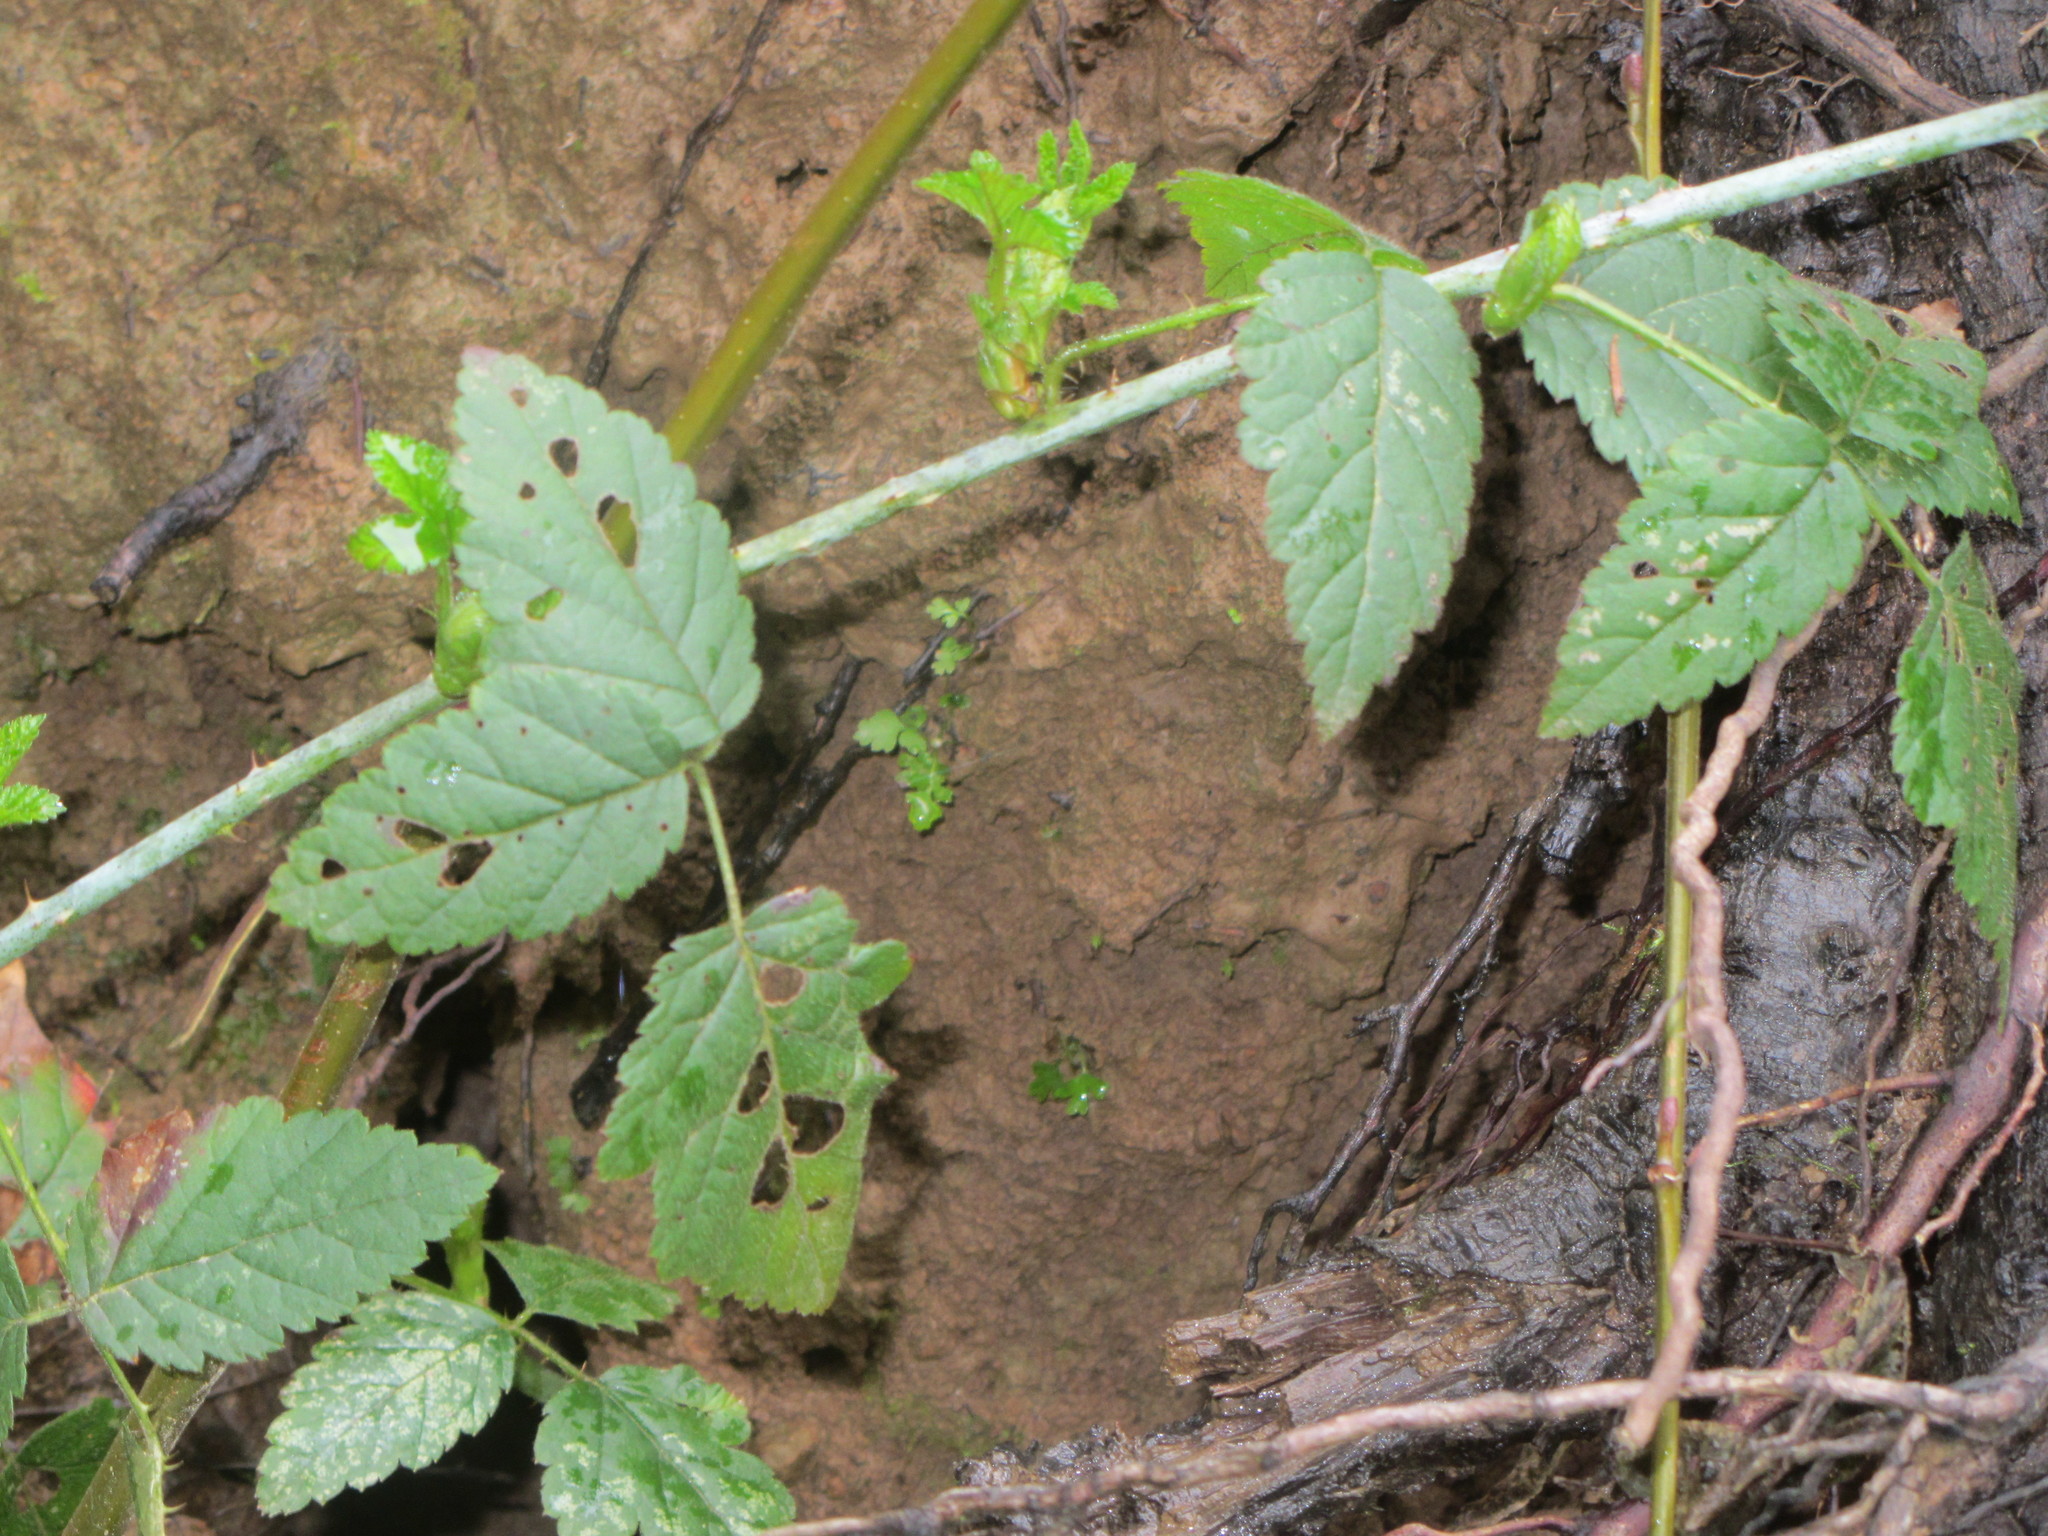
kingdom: Plantae
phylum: Tracheophyta
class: Magnoliopsida
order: Rosales
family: Rosaceae
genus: Rubus
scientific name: Rubus ursinus
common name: Pacific blackberry
